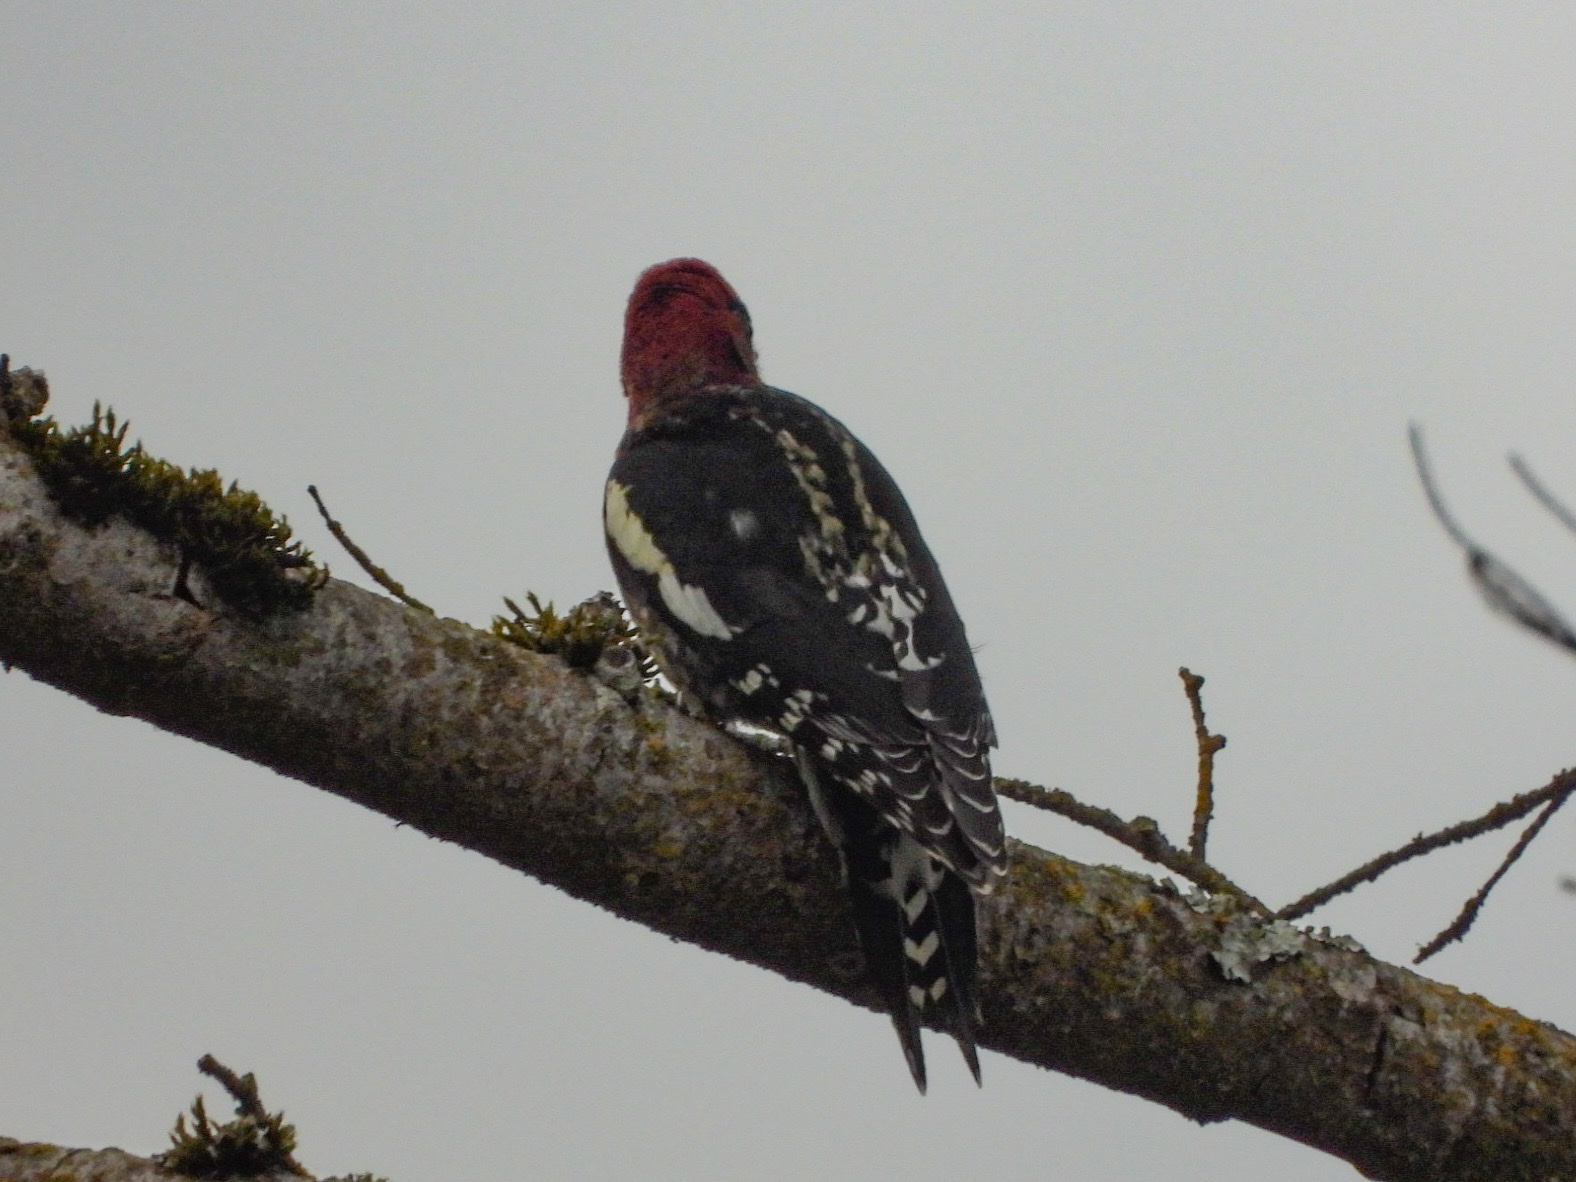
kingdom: Animalia
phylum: Chordata
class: Aves
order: Piciformes
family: Picidae
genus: Sphyrapicus
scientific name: Sphyrapicus ruber
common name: Red-breasted sapsucker
